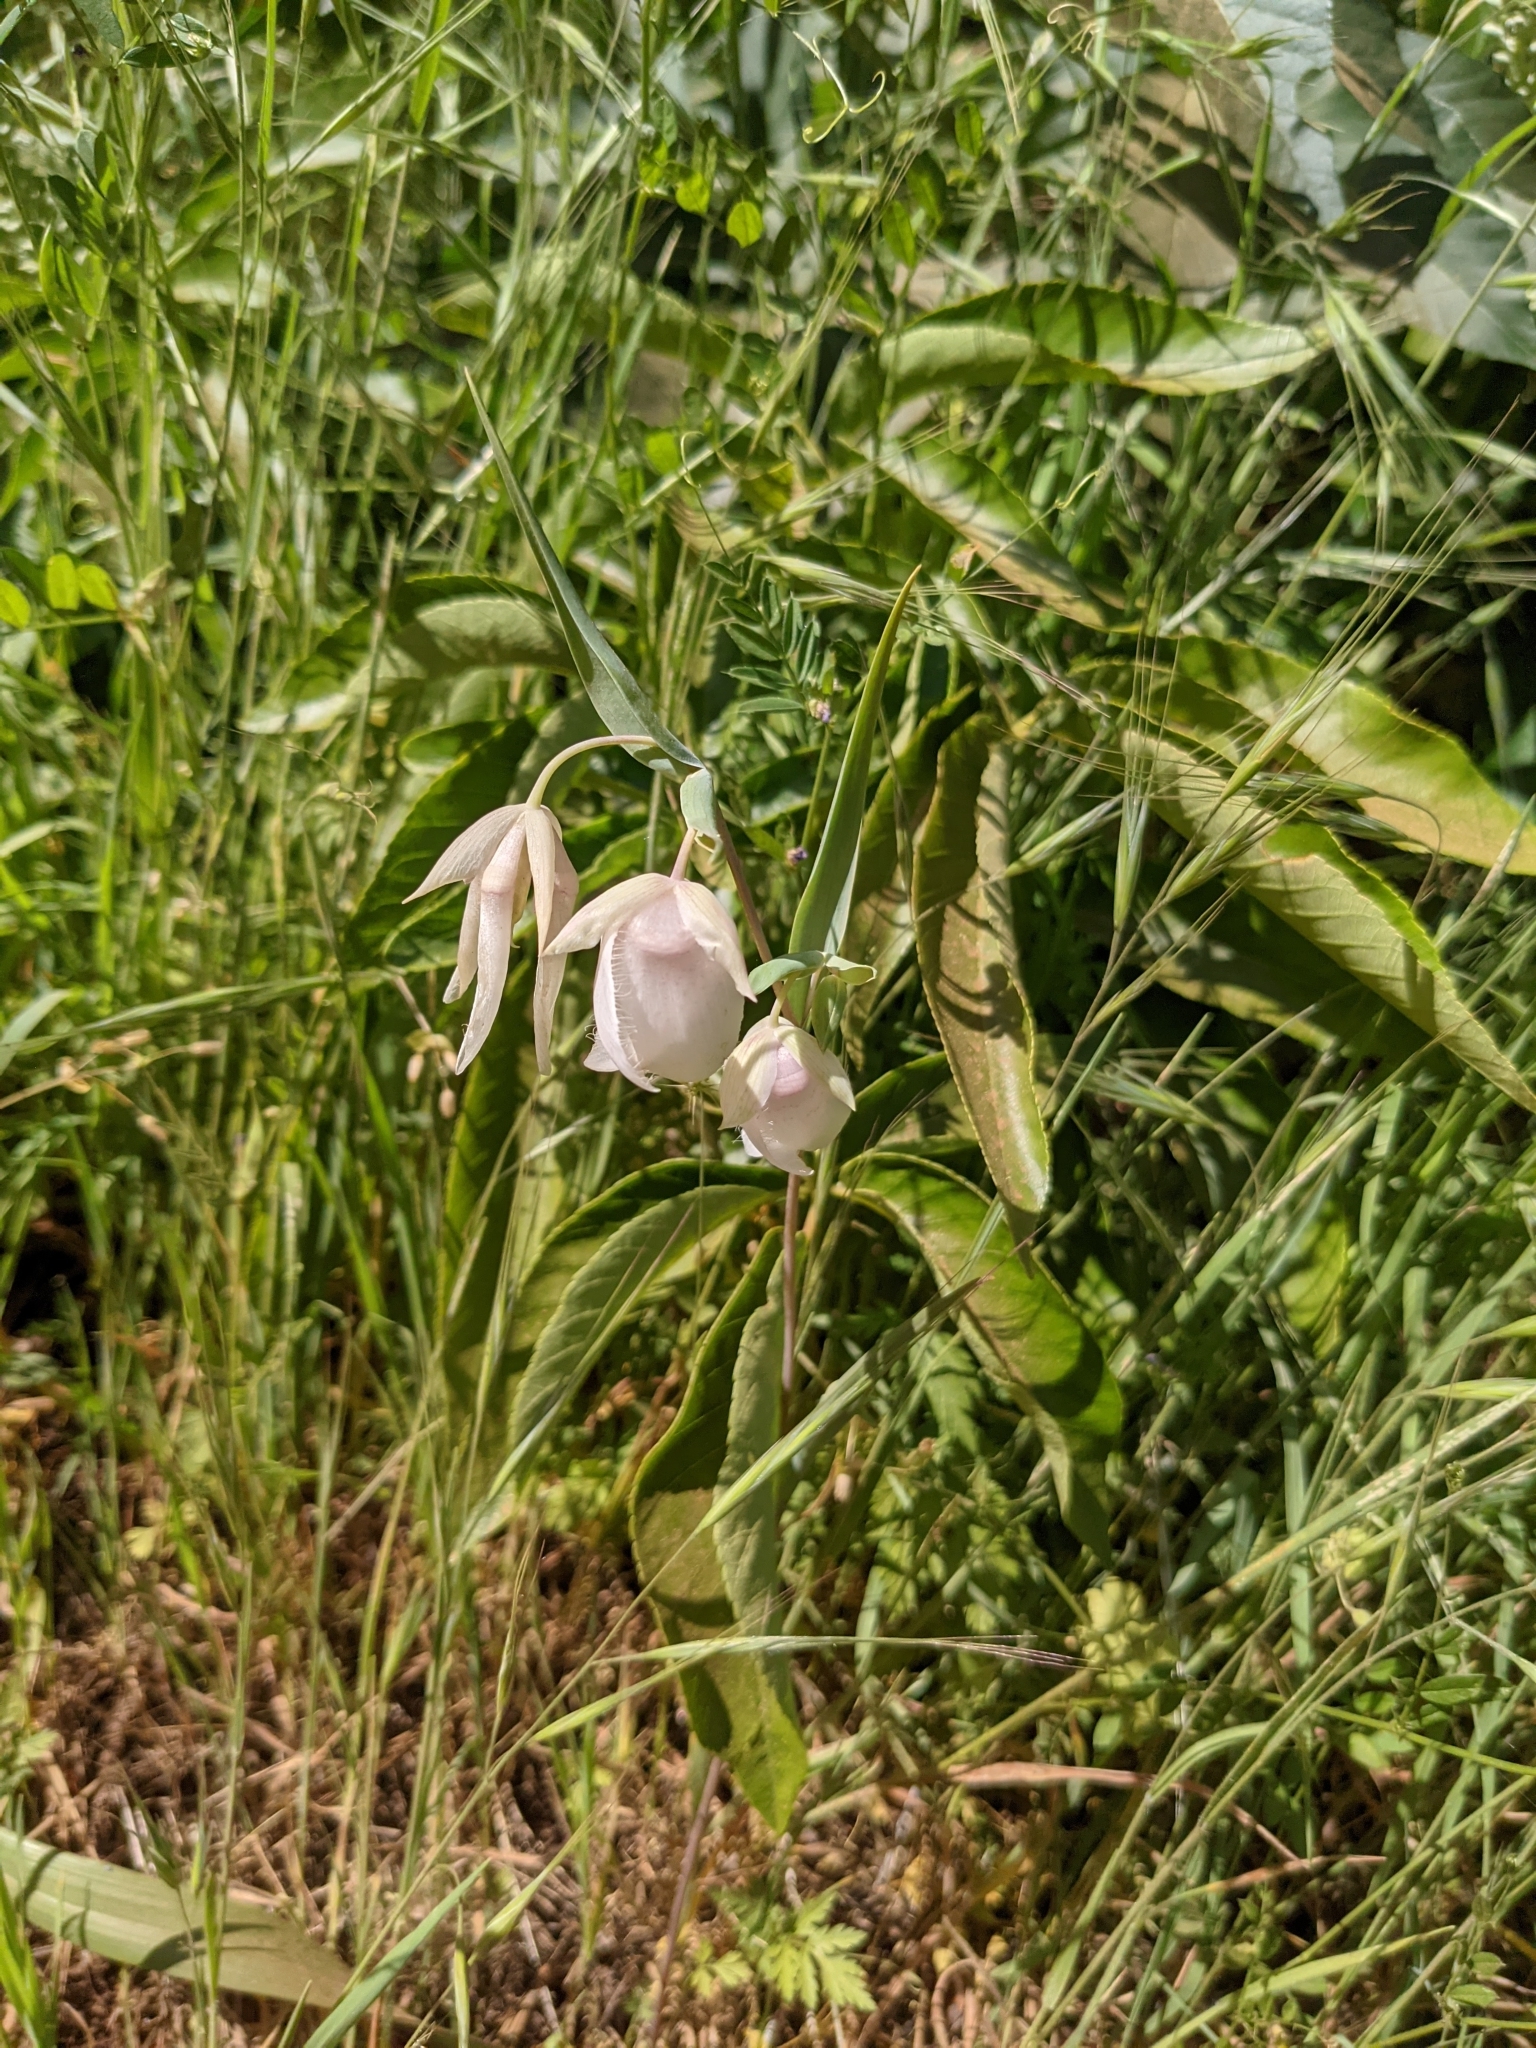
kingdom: Plantae
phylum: Tracheophyta
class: Liliopsida
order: Liliales
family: Liliaceae
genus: Calochortus
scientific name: Calochortus albus
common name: Fairy-lantern
